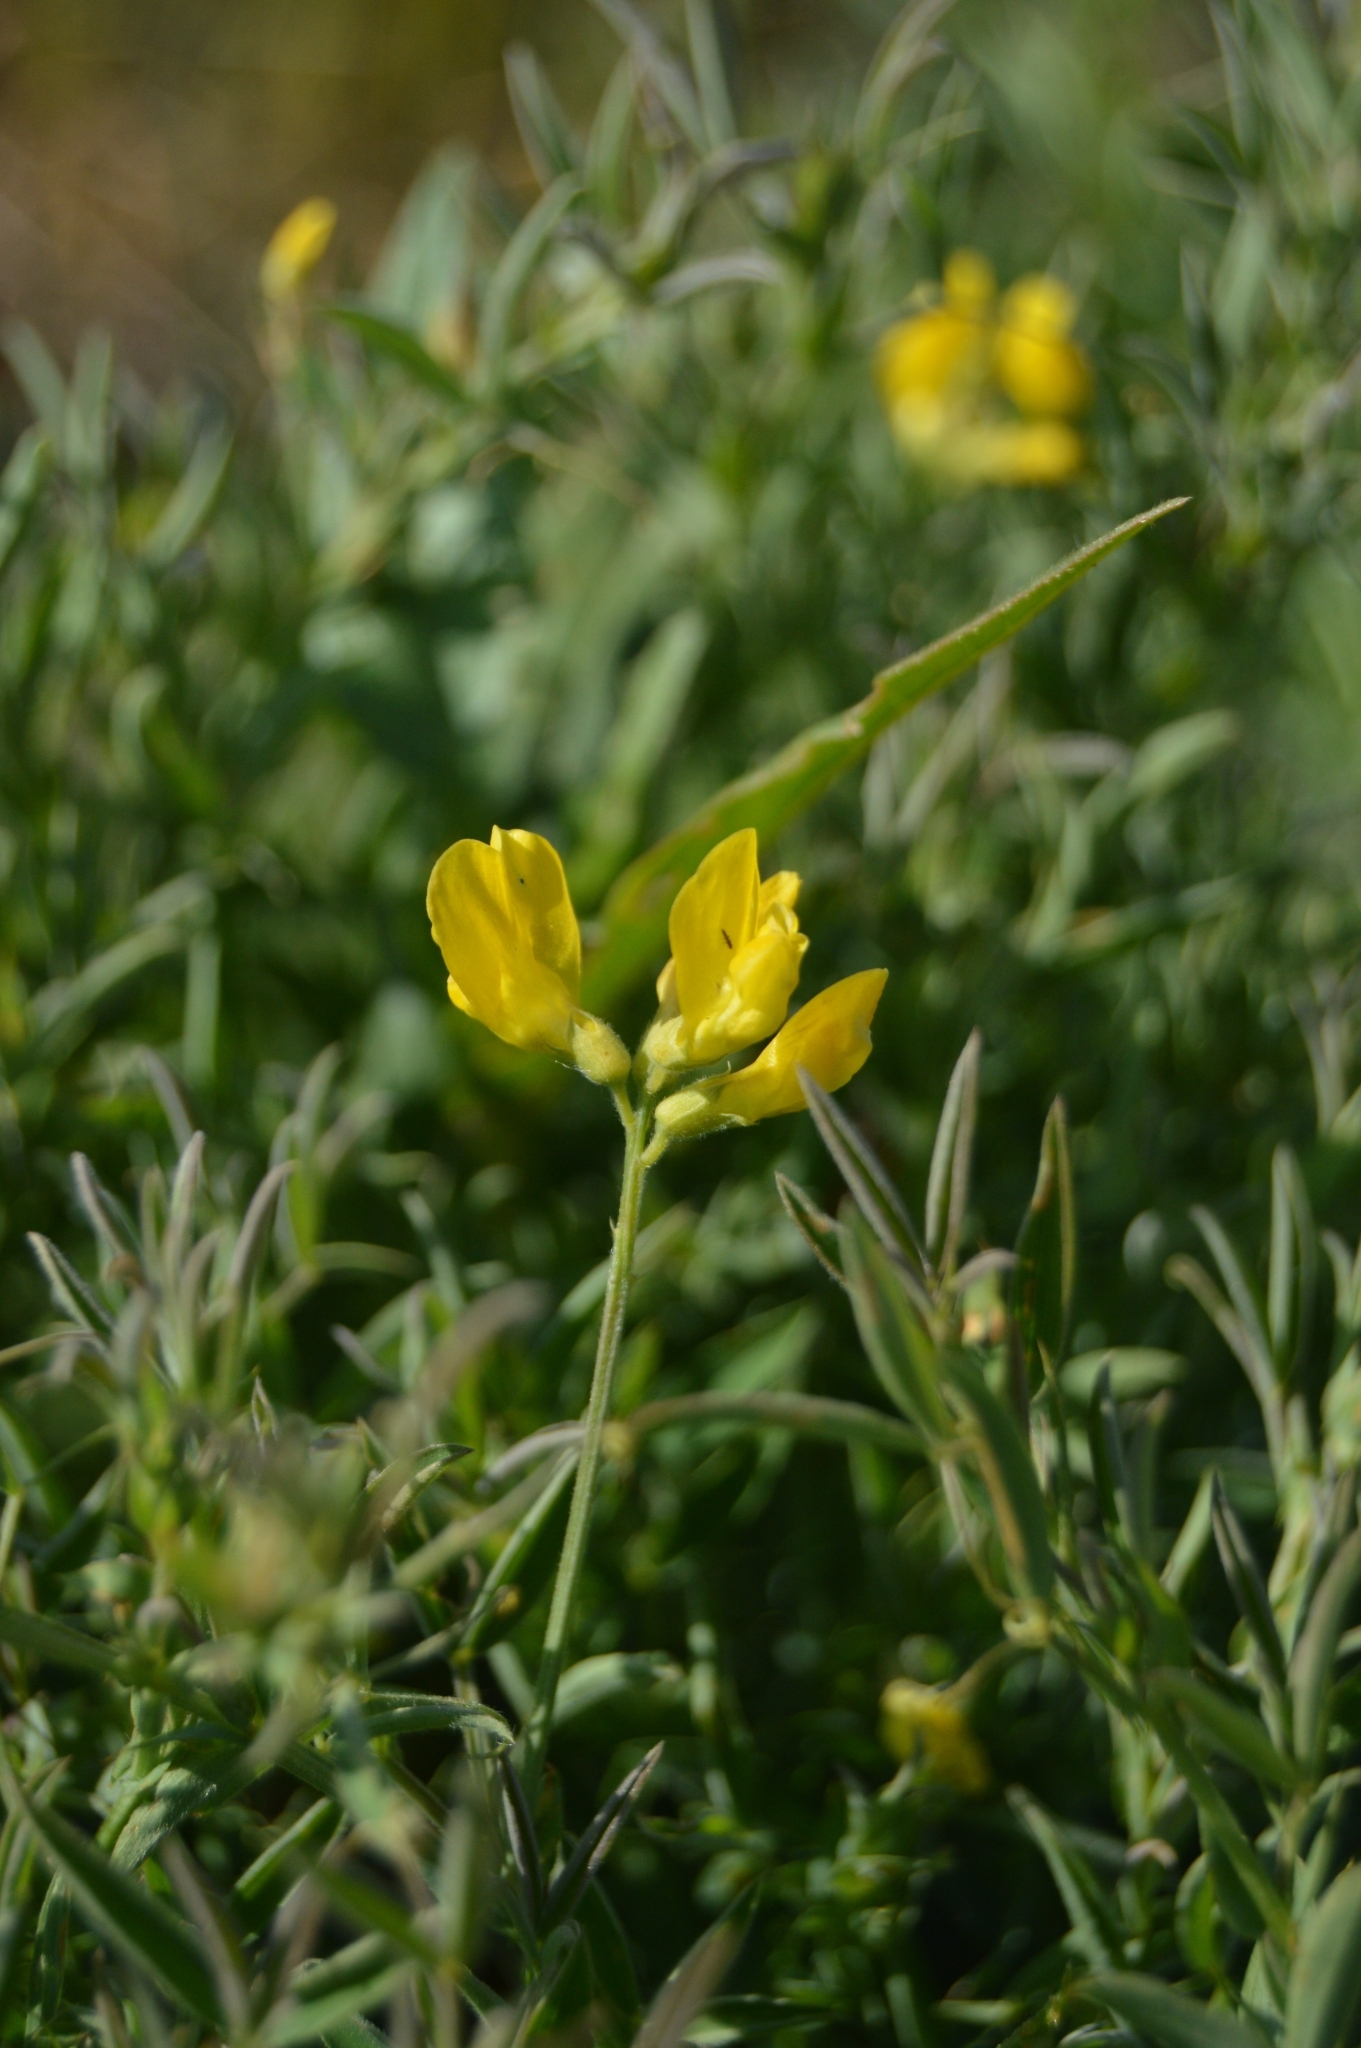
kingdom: Plantae
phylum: Tracheophyta
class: Magnoliopsida
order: Fabales
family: Fabaceae
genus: Lathyrus
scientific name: Lathyrus pratensis
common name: Meadow vetchling
